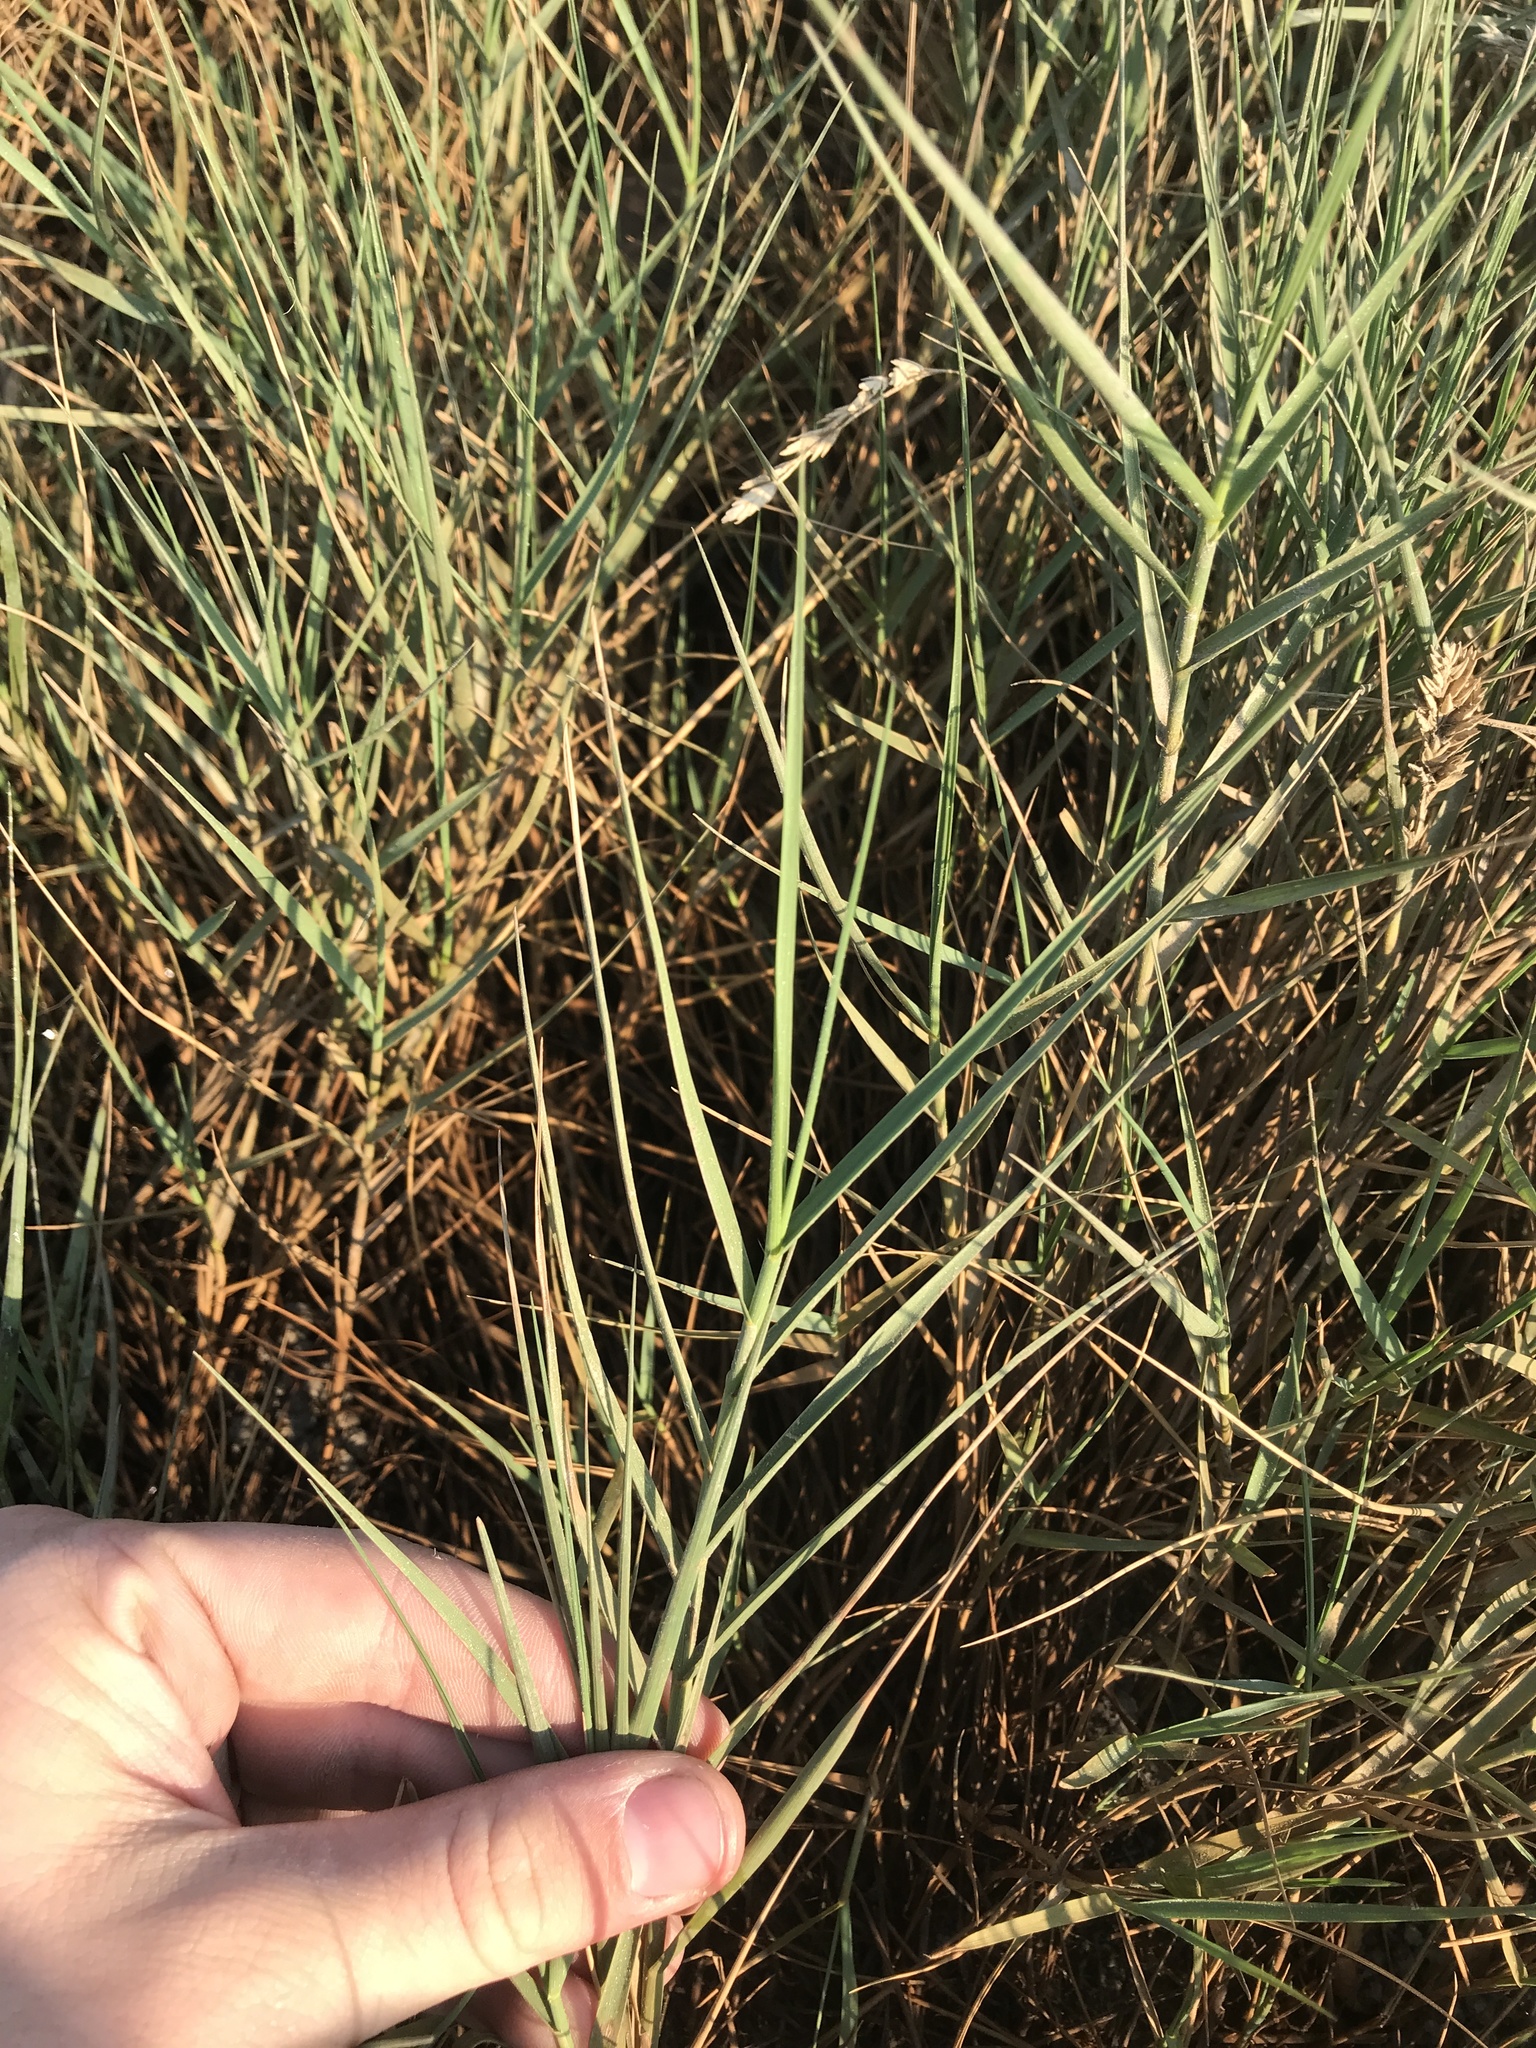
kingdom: Plantae
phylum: Tracheophyta
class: Liliopsida
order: Poales
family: Poaceae
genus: Distichlis
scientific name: Distichlis spicata
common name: Saltgrass
